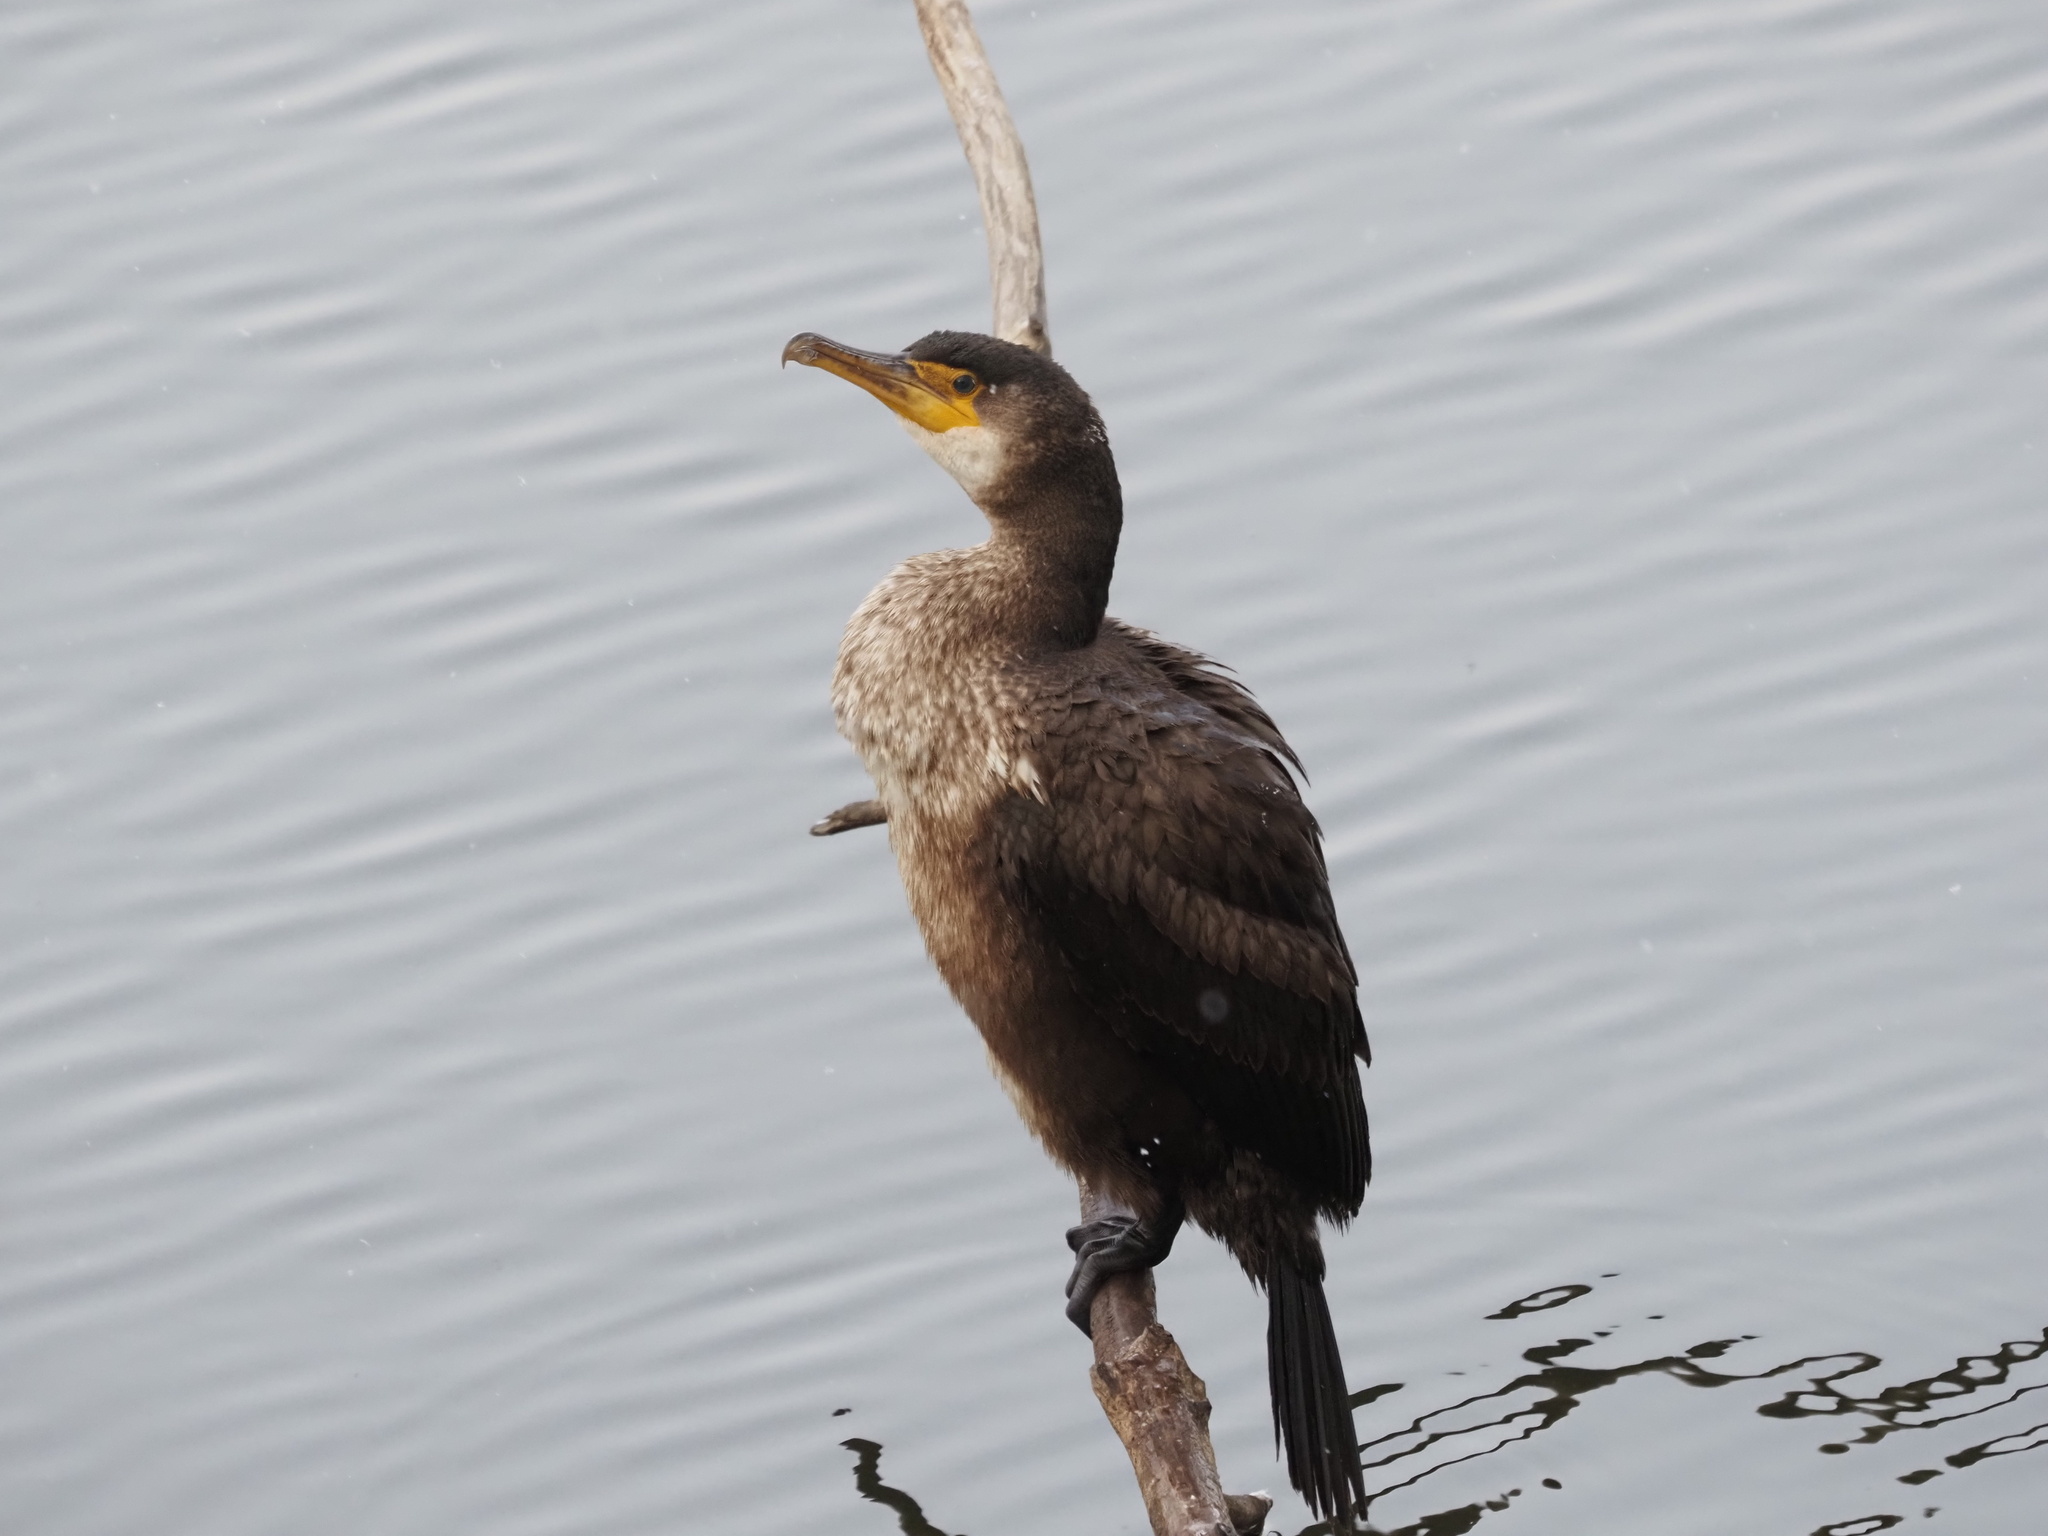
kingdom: Animalia
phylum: Chordata
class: Aves
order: Suliformes
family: Phalacrocoracidae
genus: Phalacrocorax
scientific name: Phalacrocorax capillatus
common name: Japanese cormorant
